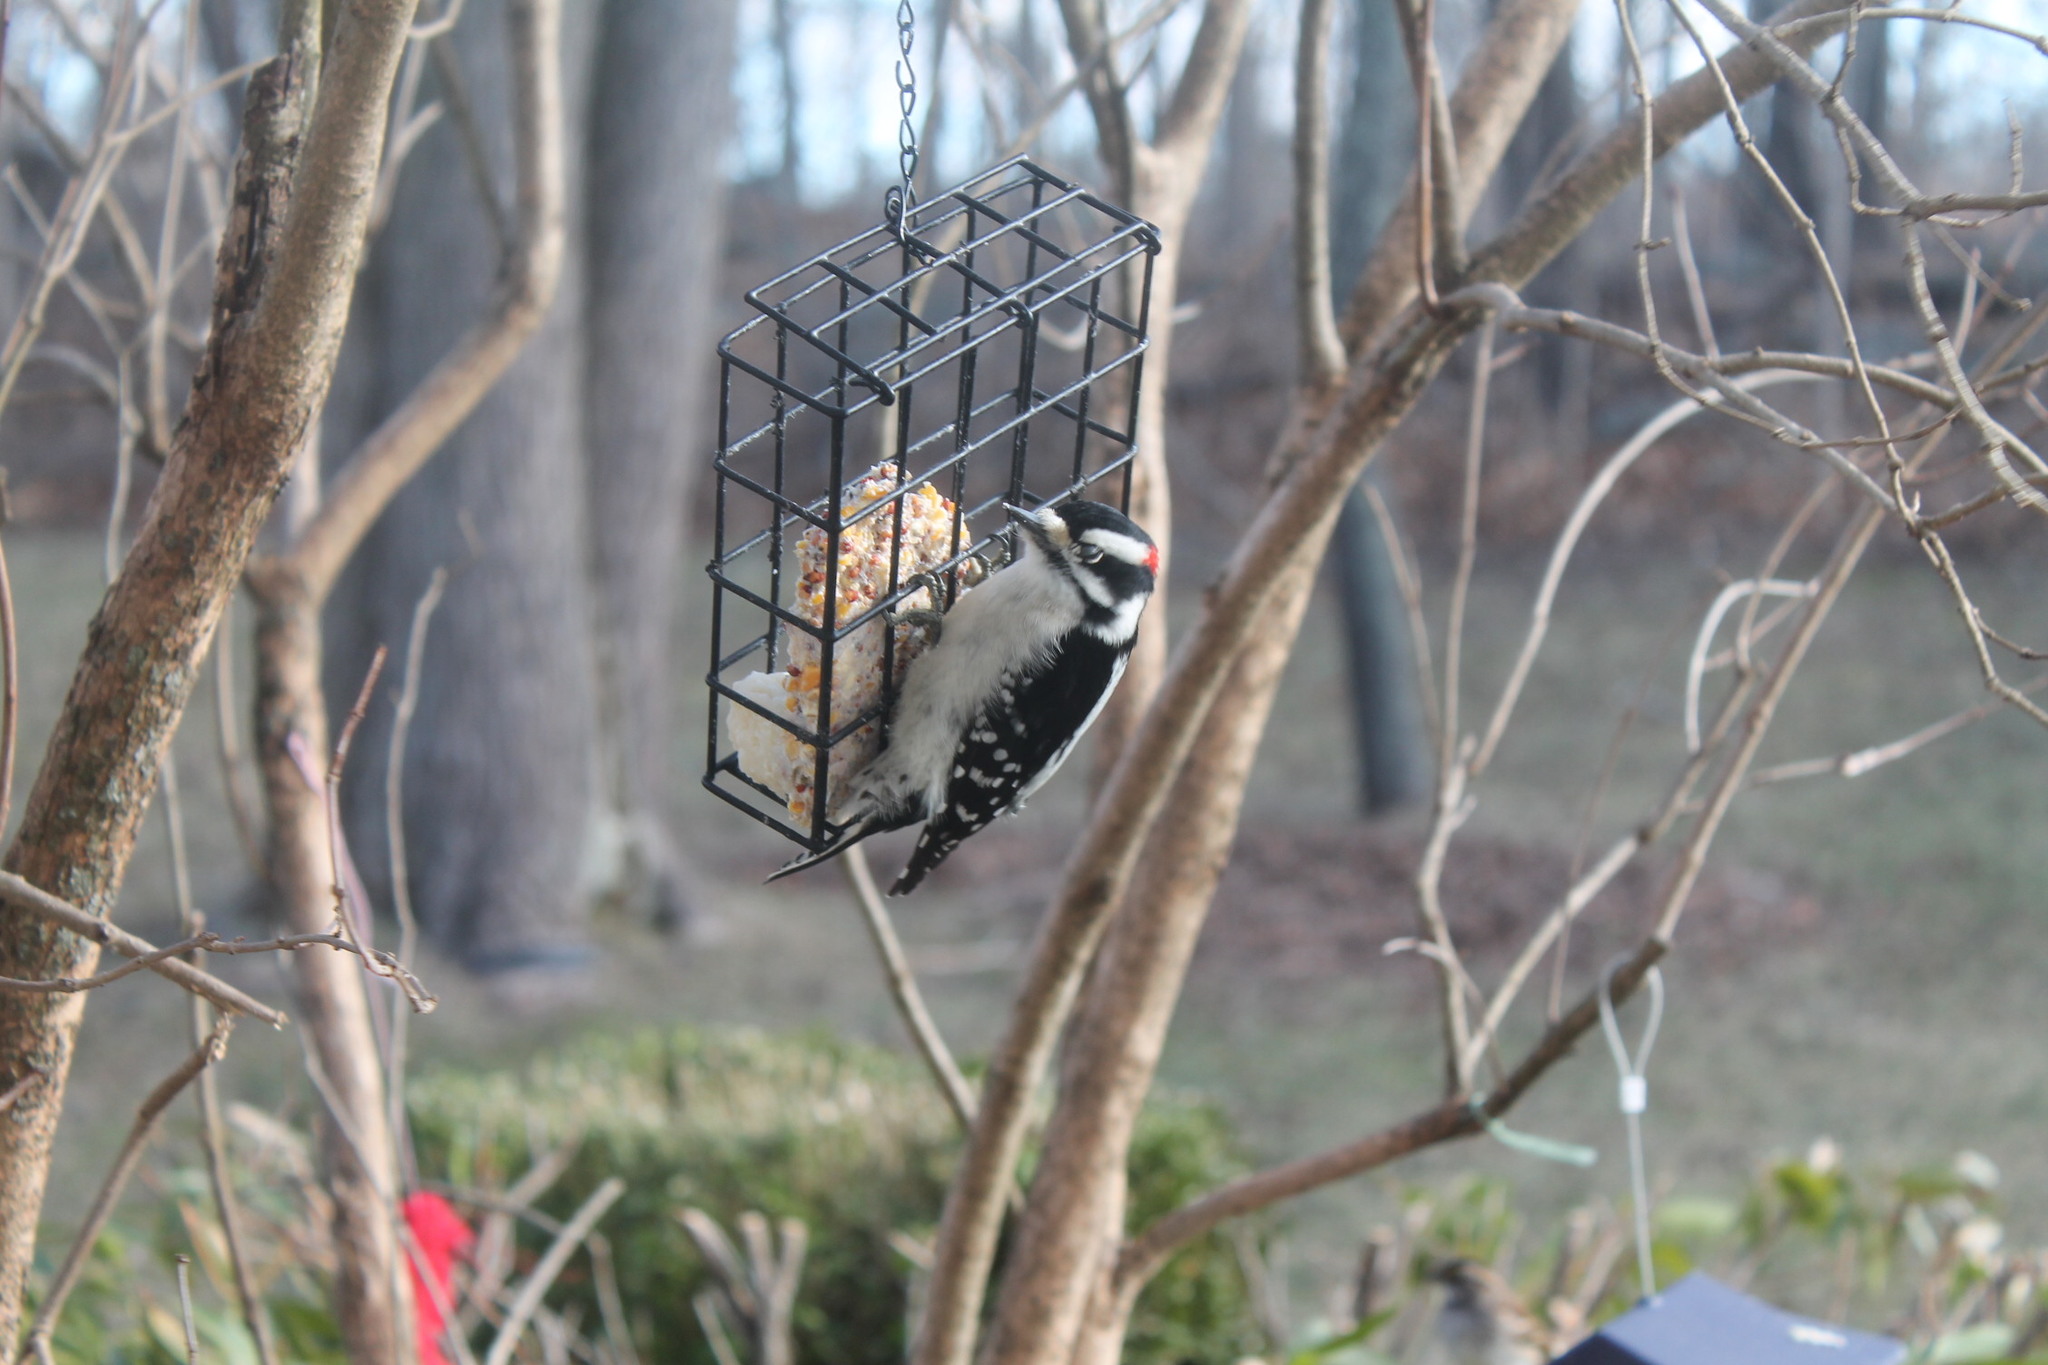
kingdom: Animalia
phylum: Chordata
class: Aves
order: Piciformes
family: Picidae
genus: Dryobates
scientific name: Dryobates pubescens
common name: Downy woodpecker
